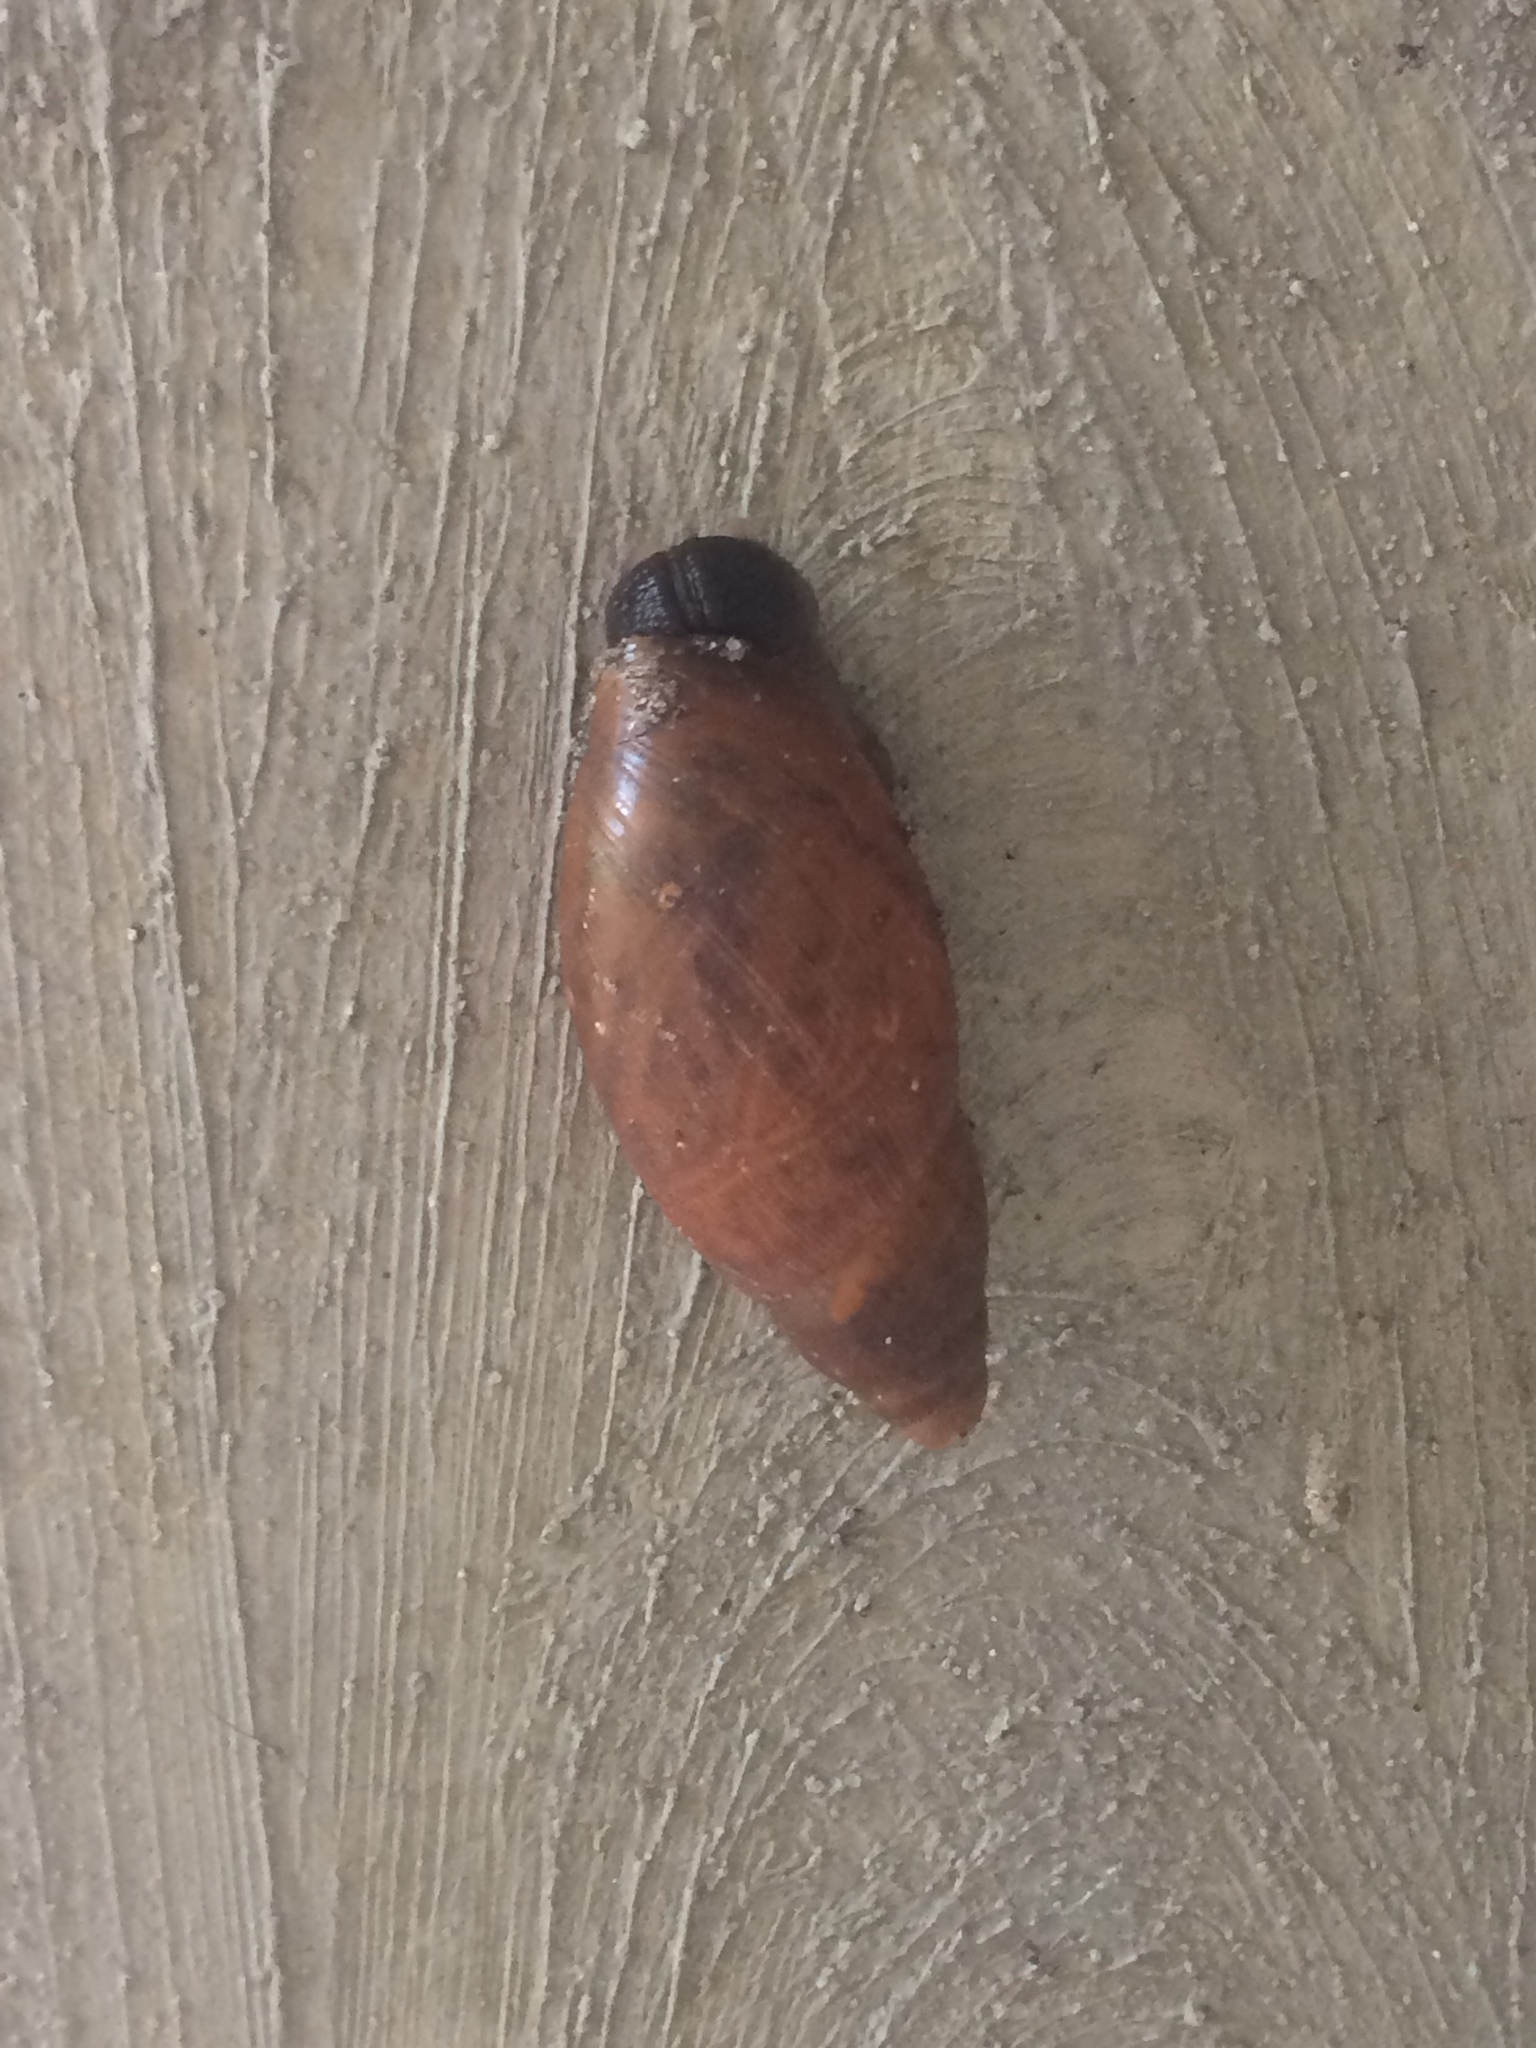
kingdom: Animalia
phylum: Mollusca
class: Gastropoda
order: Stylommatophora
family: Spiraxidae
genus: Euglandina
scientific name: Euglandina rosea
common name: Rosy wolfsnail
